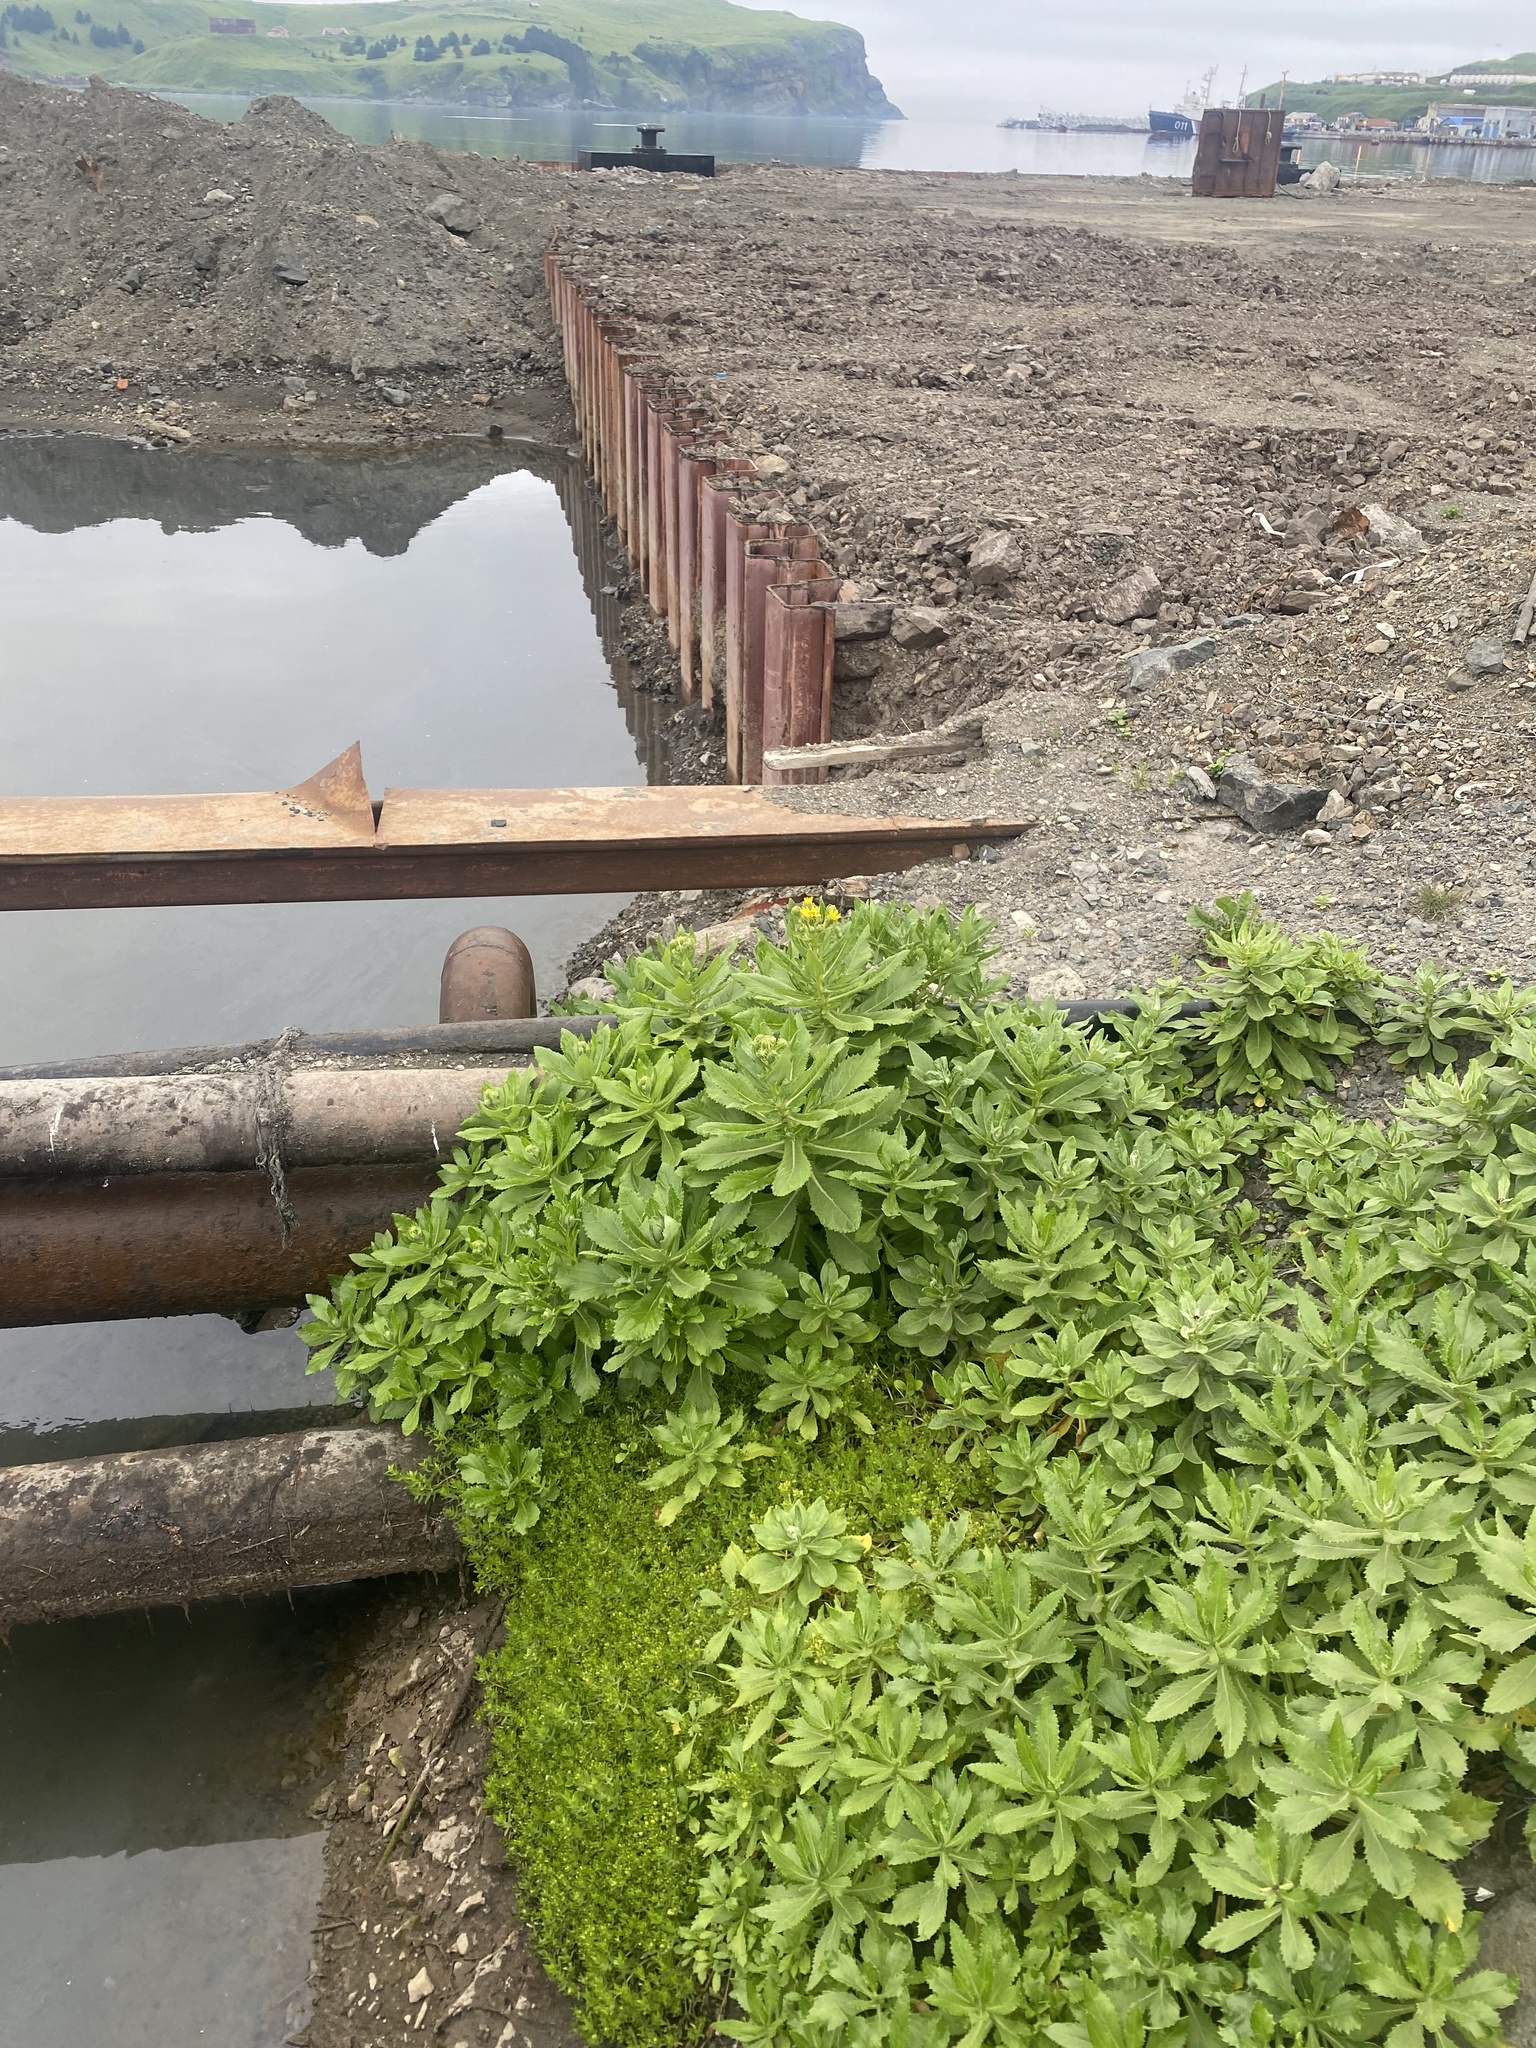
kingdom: Plantae
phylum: Tracheophyta
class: Magnoliopsida
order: Asterales
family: Asteraceae
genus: Jacobaea
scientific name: Jacobaea pseudoarnica
